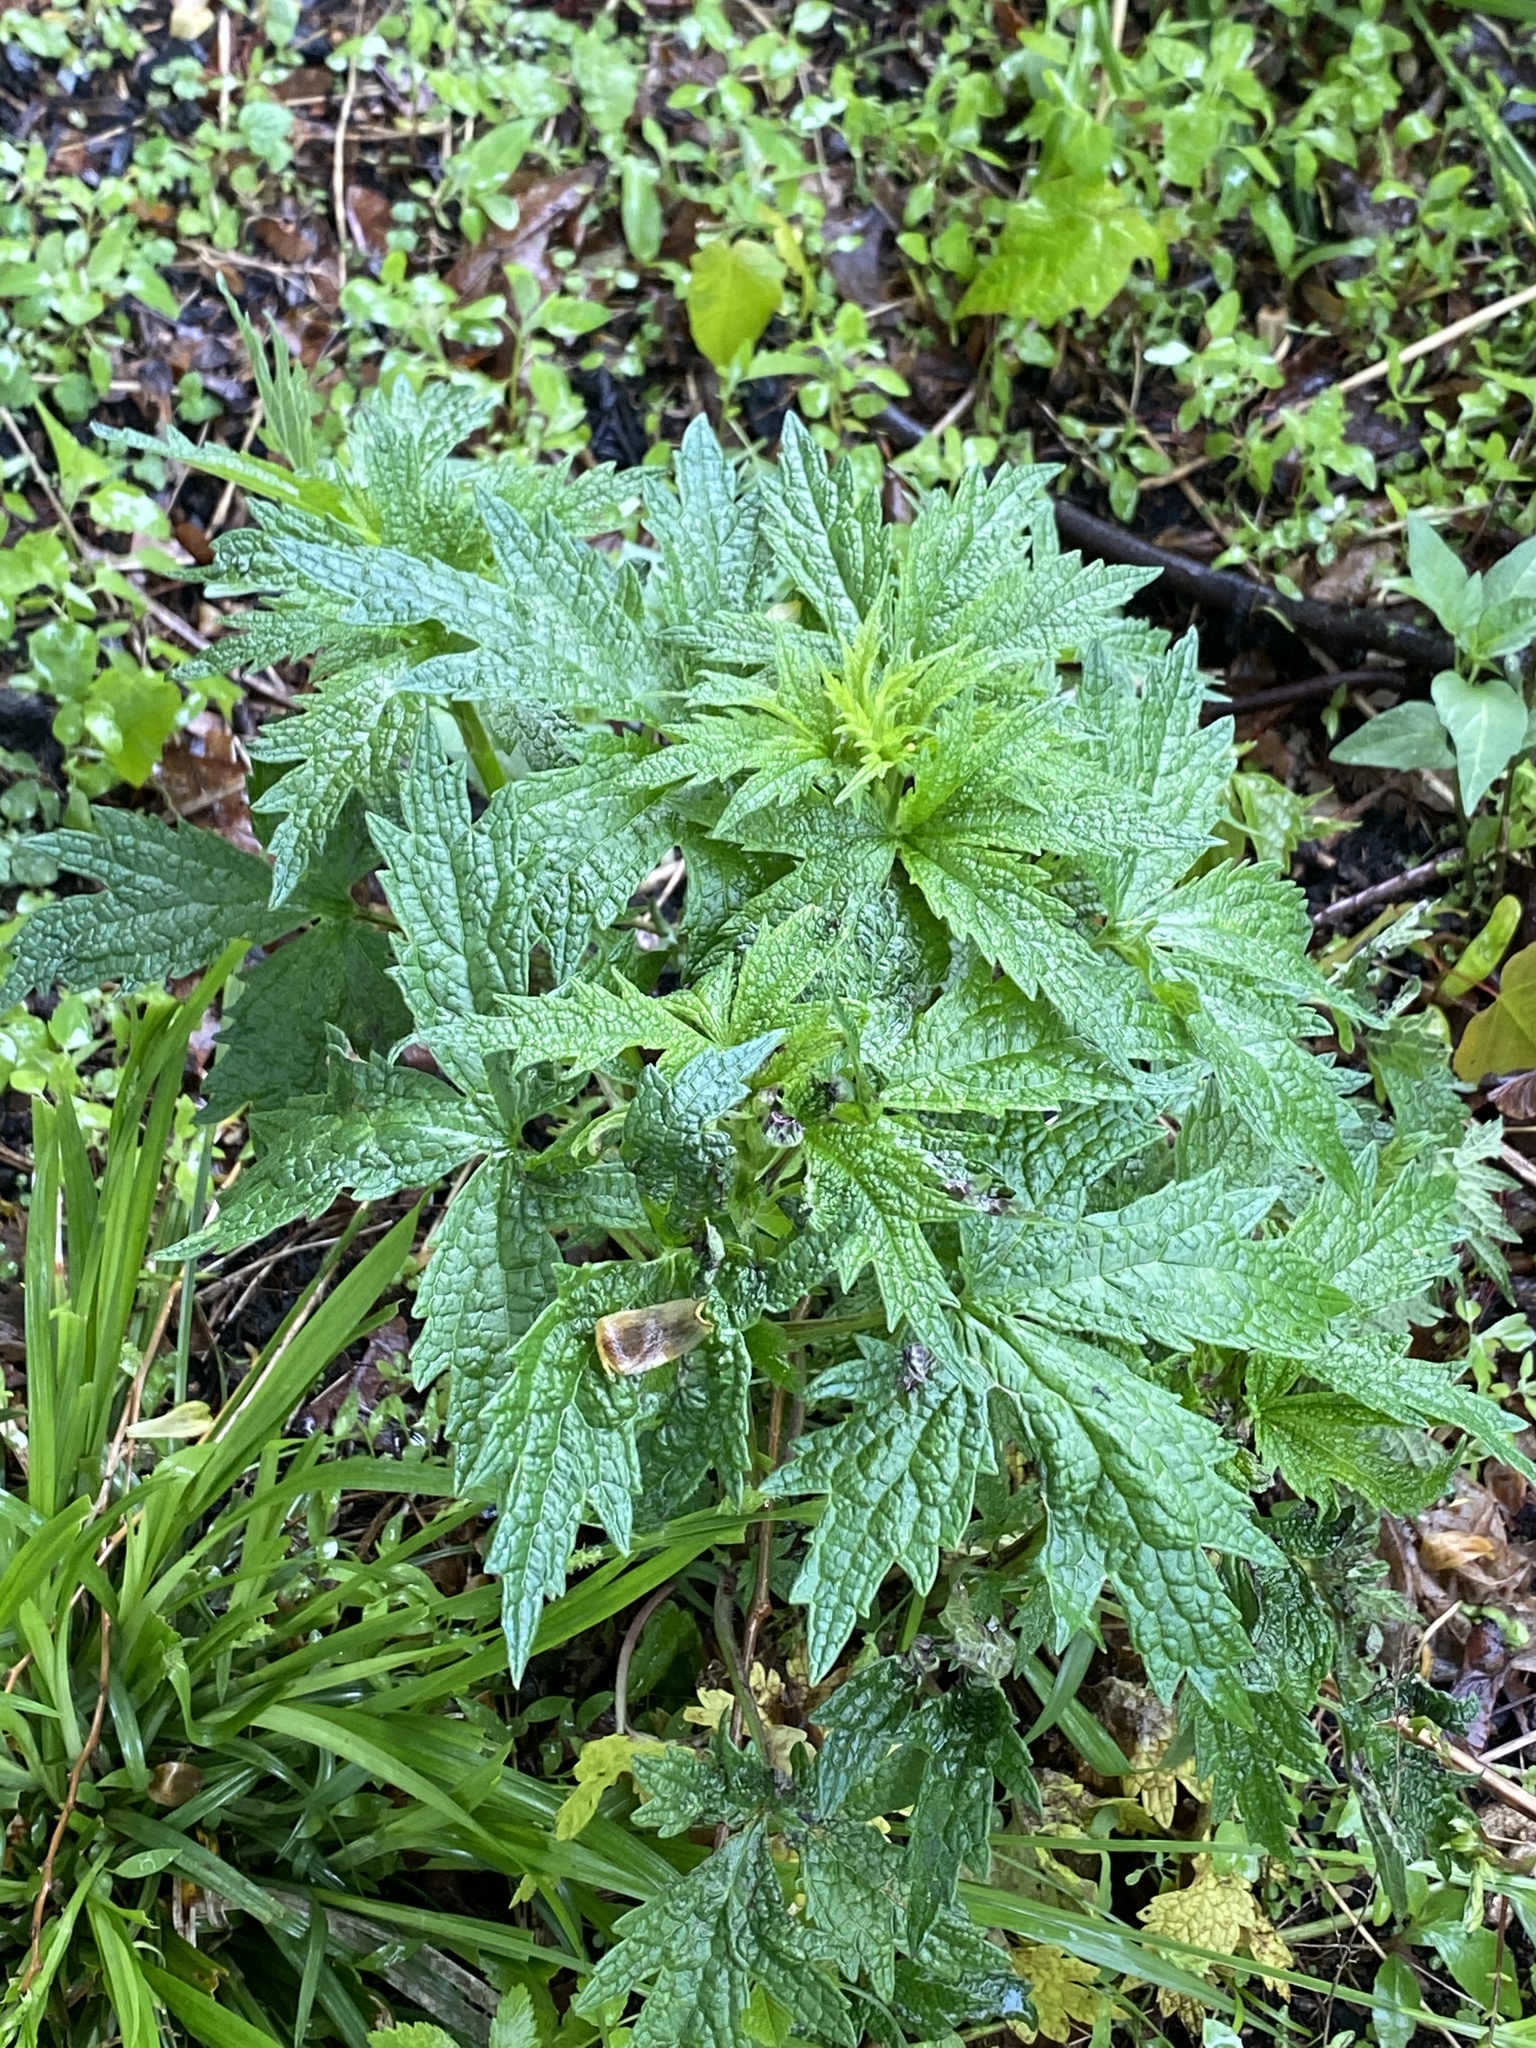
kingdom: Plantae
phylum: Tracheophyta
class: Magnoliopsida
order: Lamiales
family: Lamiaceae
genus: Leonurus
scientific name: Leonurus cardiaca
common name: Motherwort
